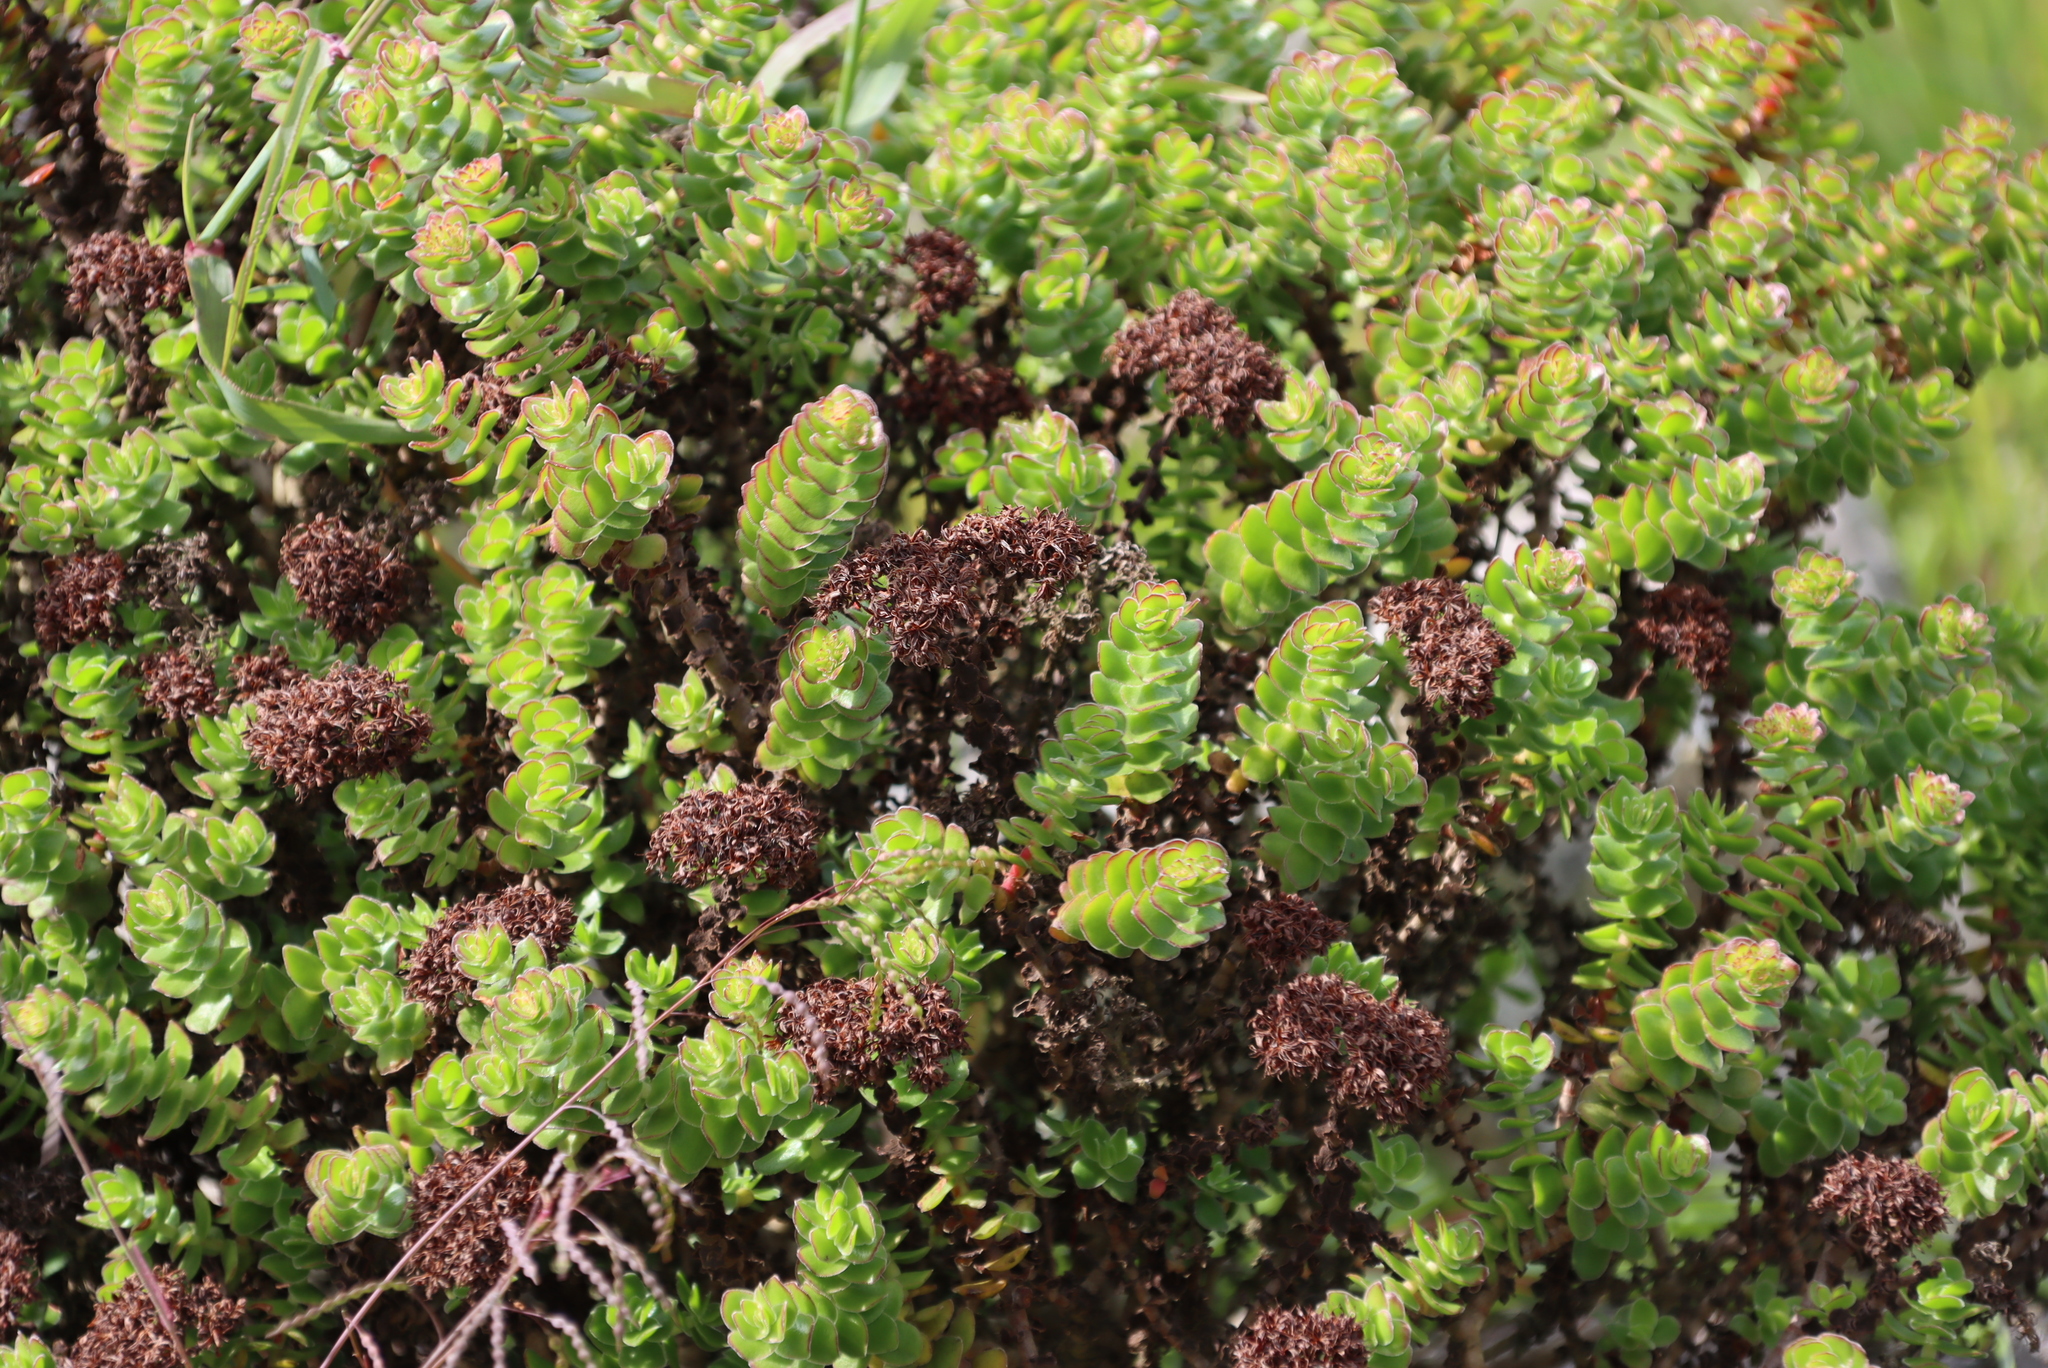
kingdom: Plantae
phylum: Tracheophyta
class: Magnoliopsida
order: Saxifragales
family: Crassulaceae
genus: Crassula
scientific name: Crassula undulata
